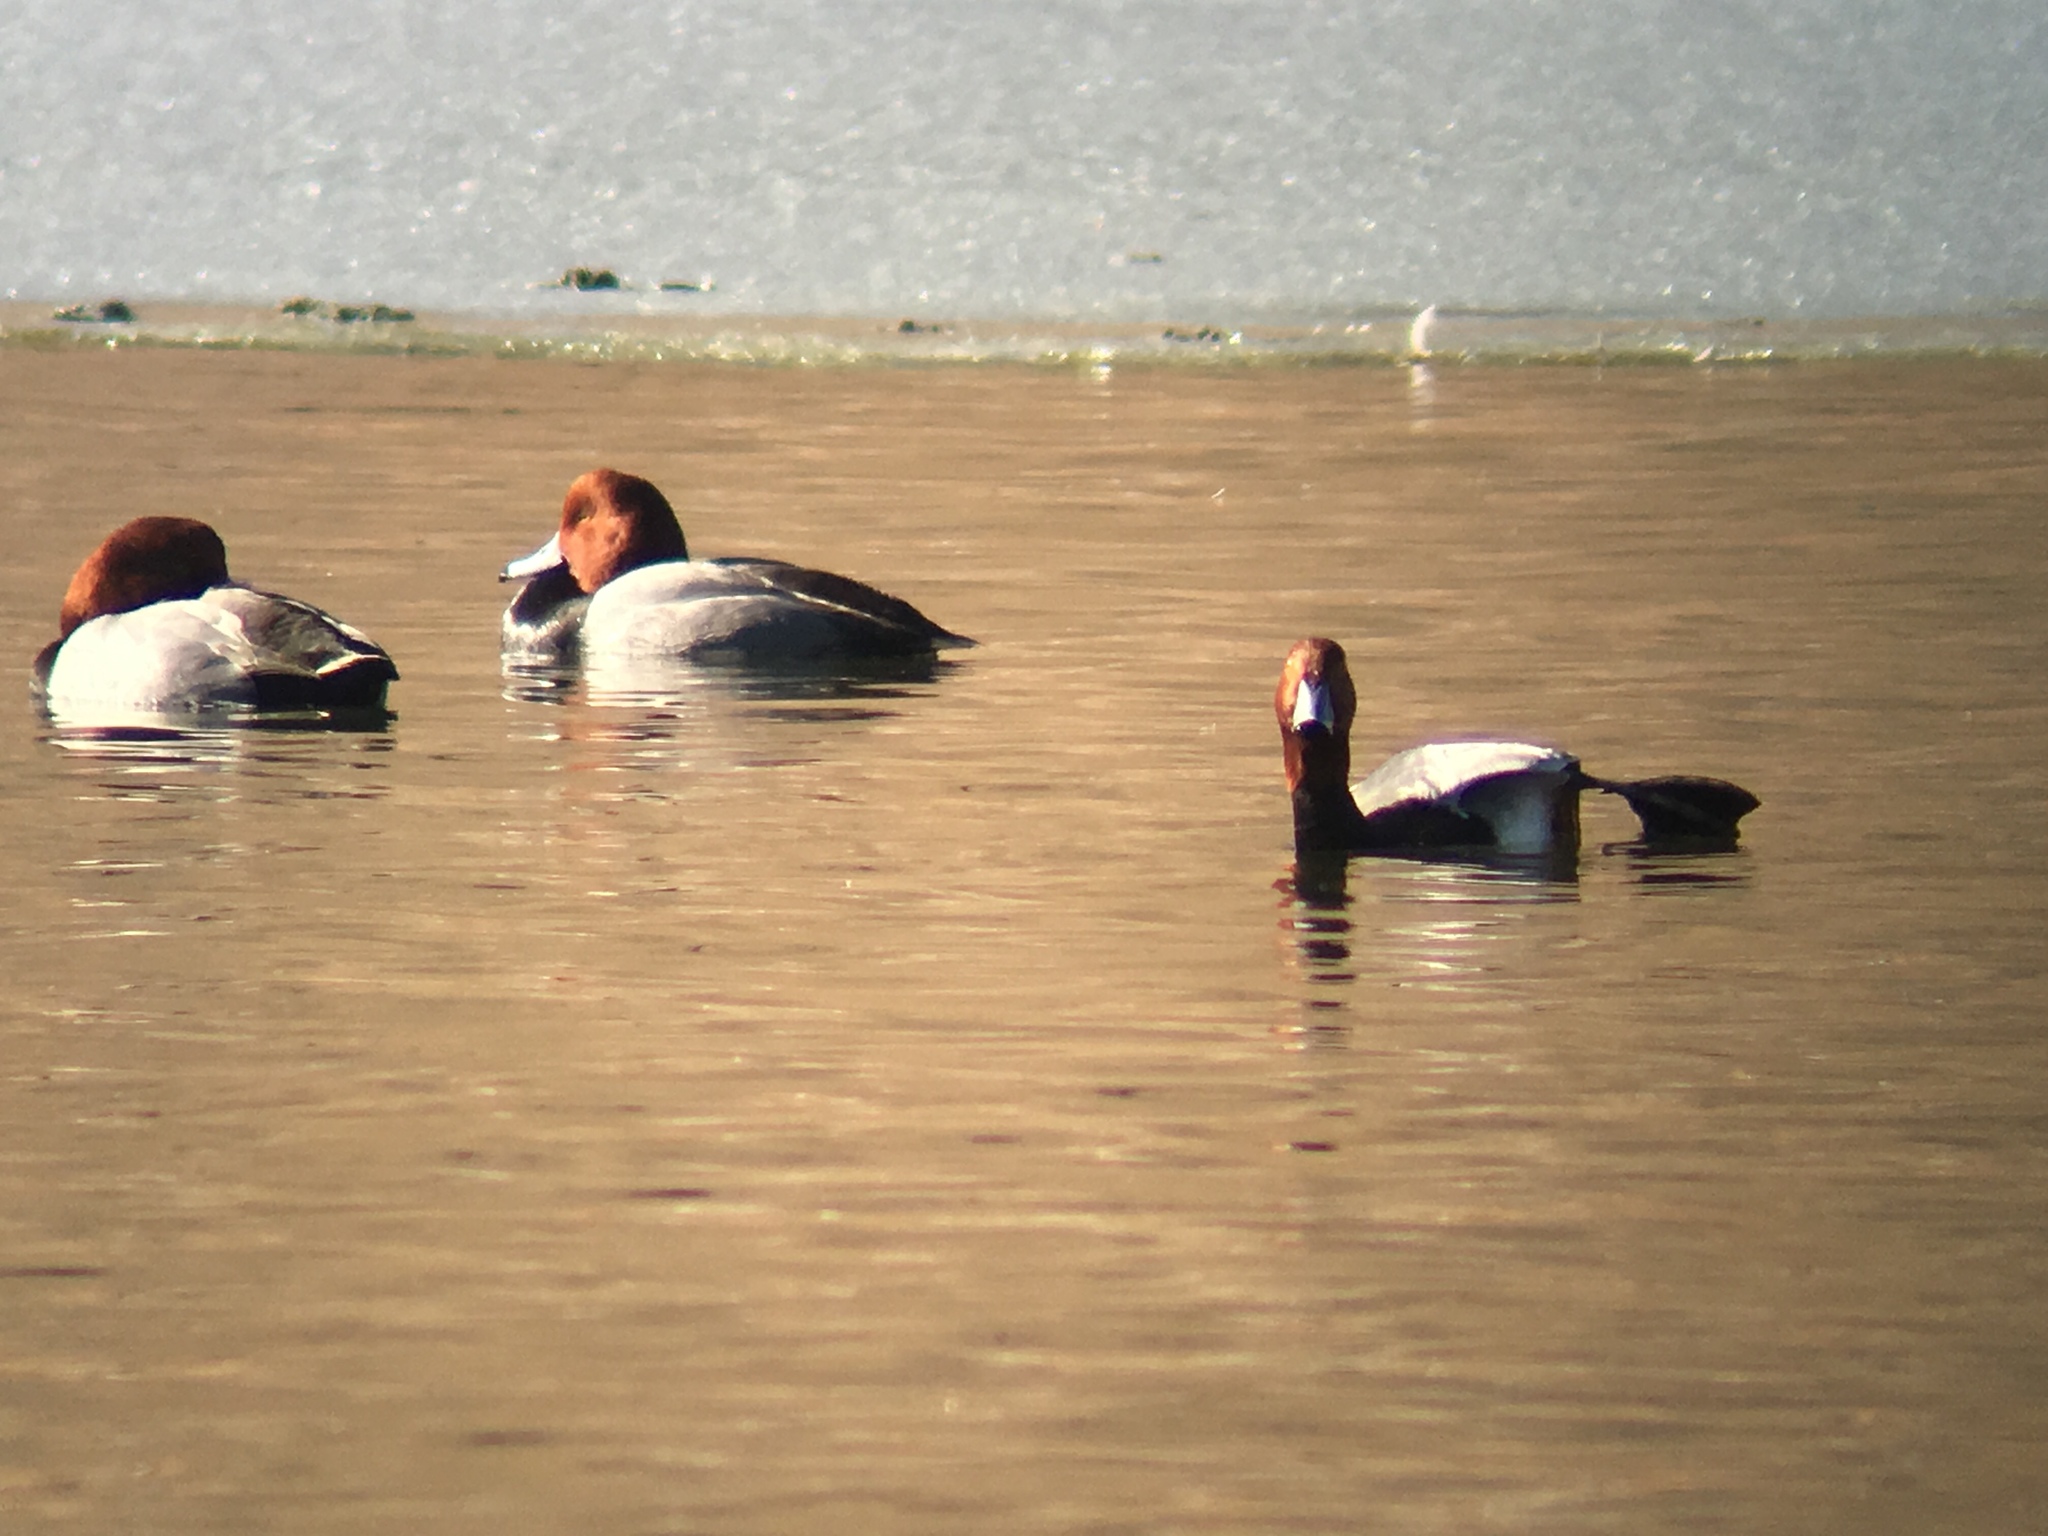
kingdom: Animalia
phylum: Chordata
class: Aves
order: Anseriformes
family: Anatidae
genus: Aythya
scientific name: Aythya americana
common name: Redhead
